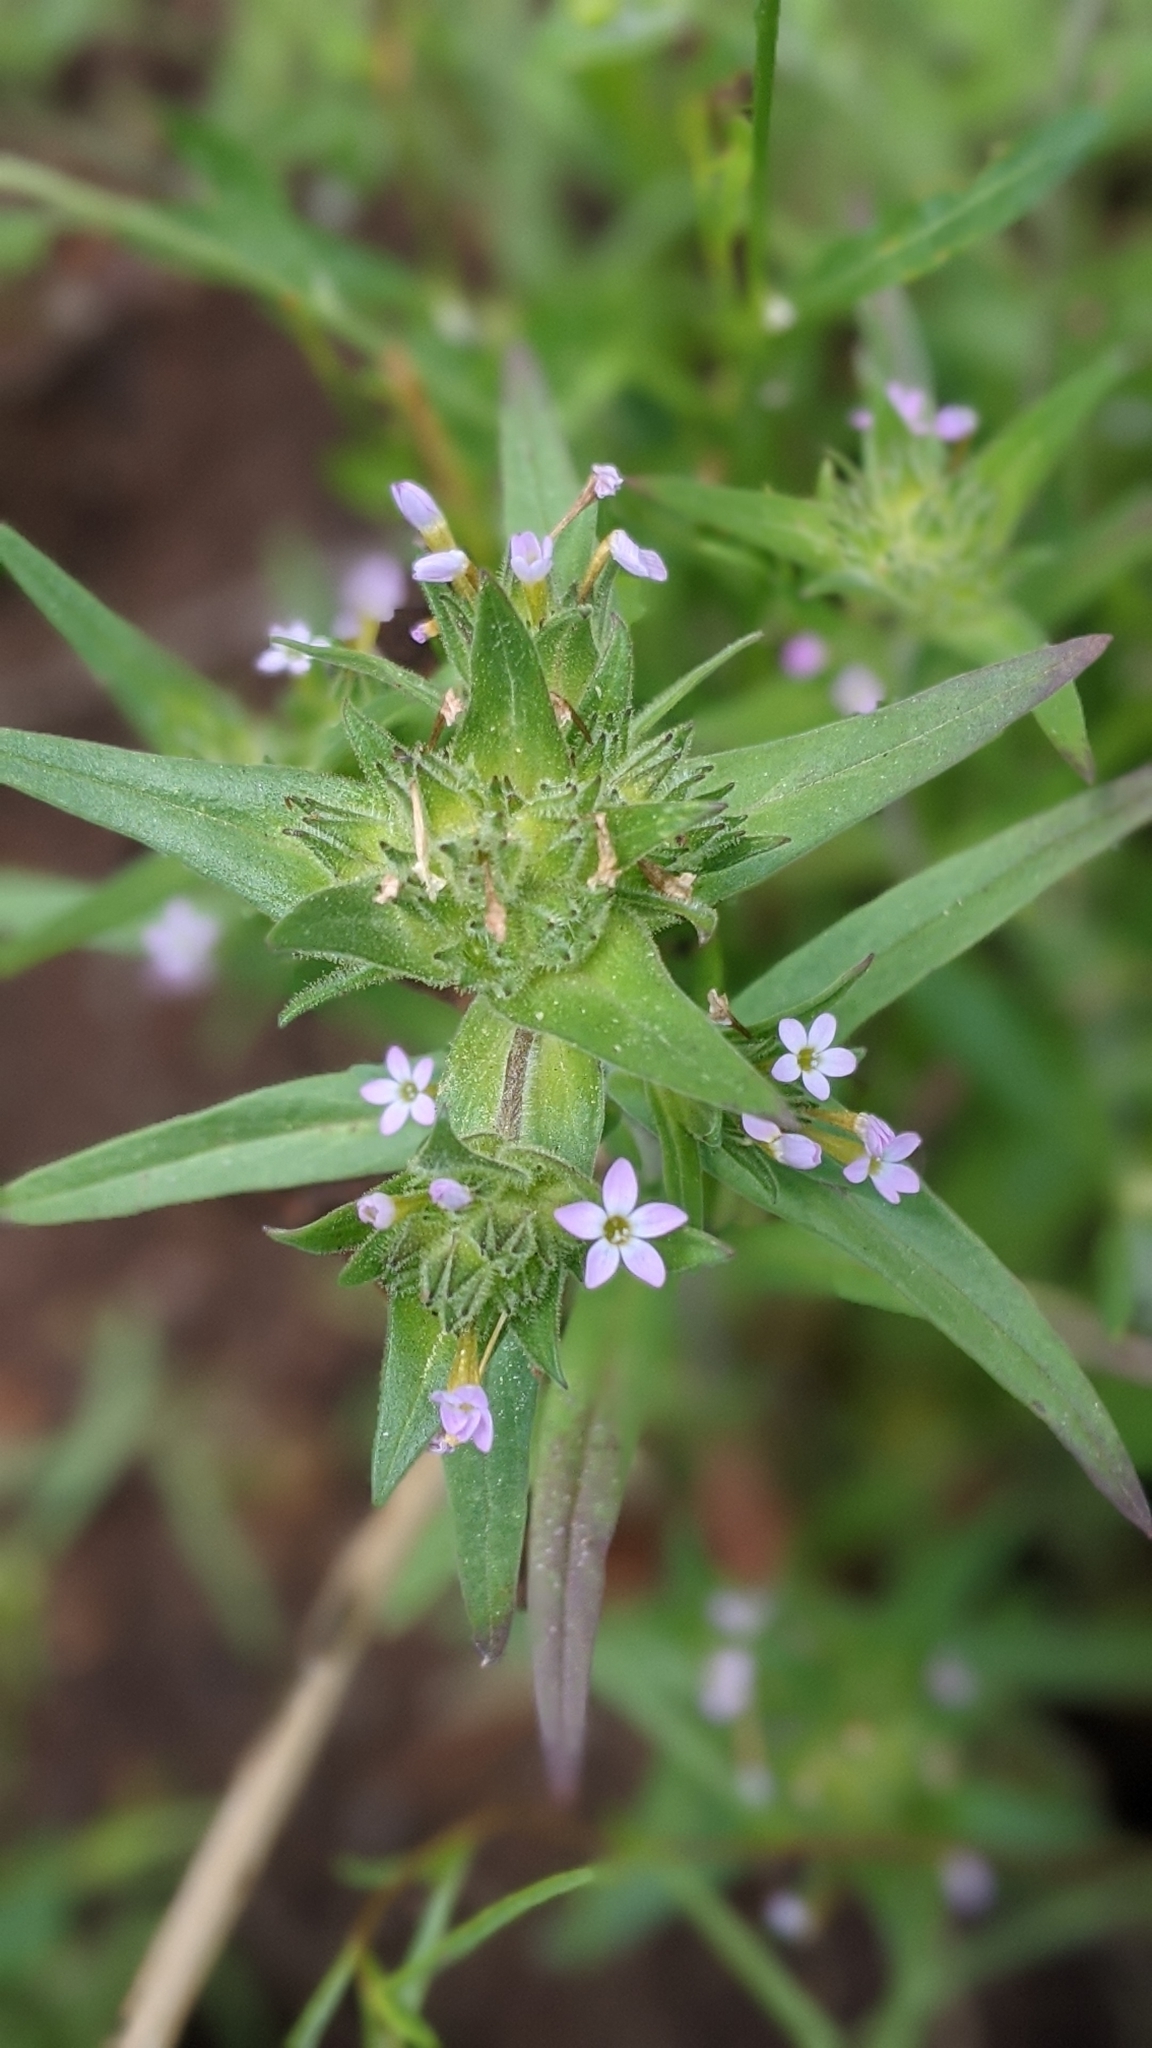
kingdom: Plantae
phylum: Tracheophyta
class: Magnoliopsida
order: Ericales
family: Polemoniaceae
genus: Collomia
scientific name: Collomia linearis
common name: Tiny trumpet
